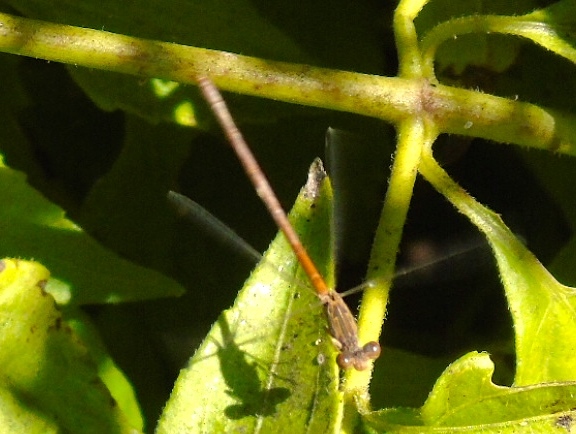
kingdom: Animalia
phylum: Arthropoda
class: Insecta
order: Odonata
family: Coenagrionidae
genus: Telebasis
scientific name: Telebasis
